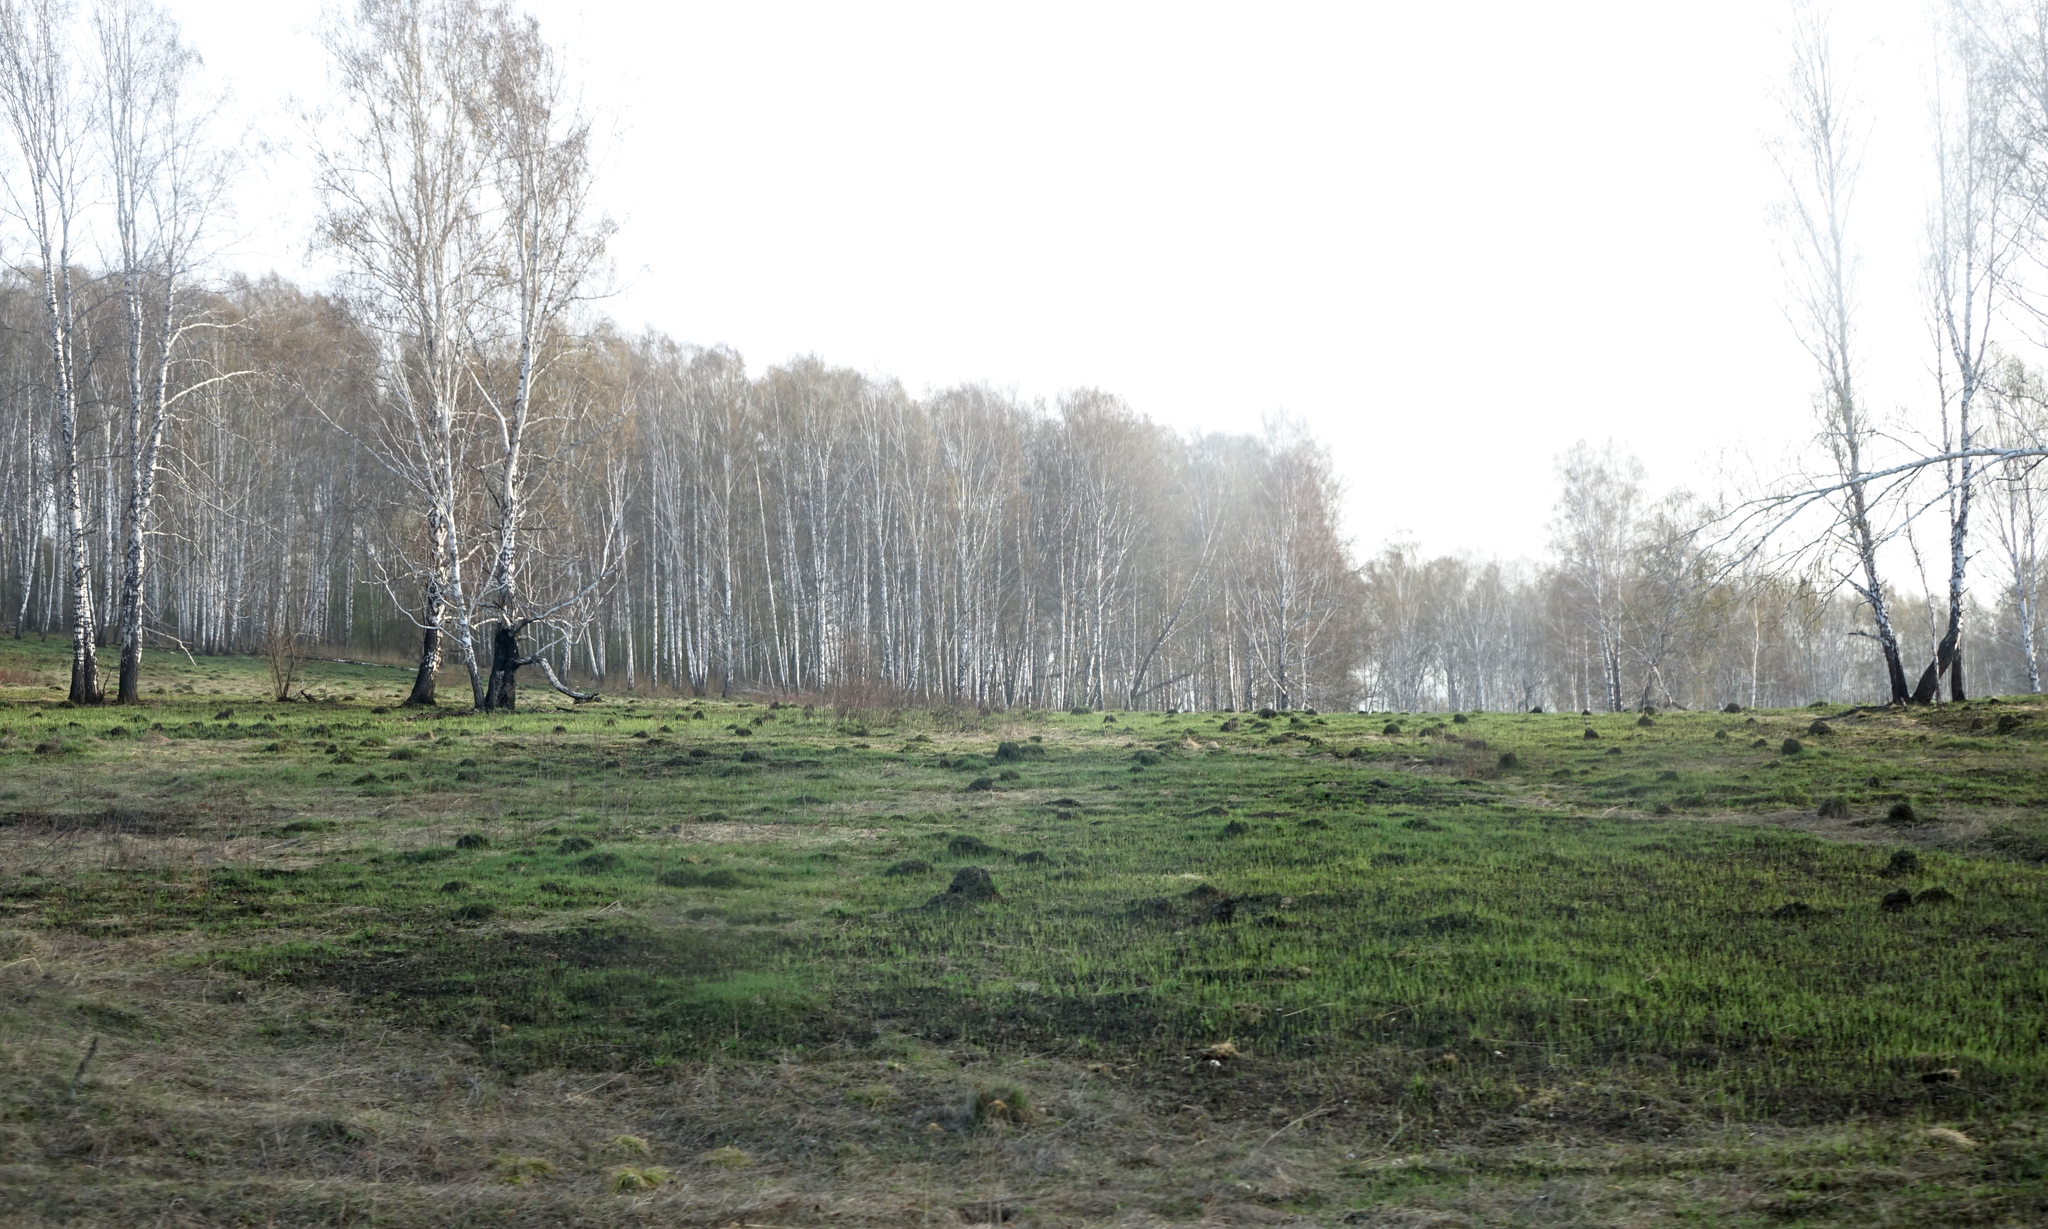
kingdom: Plantae
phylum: Tracheophyta
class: Magnoliopsida
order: Fagales
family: Betulaceae
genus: Betula
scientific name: Betula pendula
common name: Silver birch
